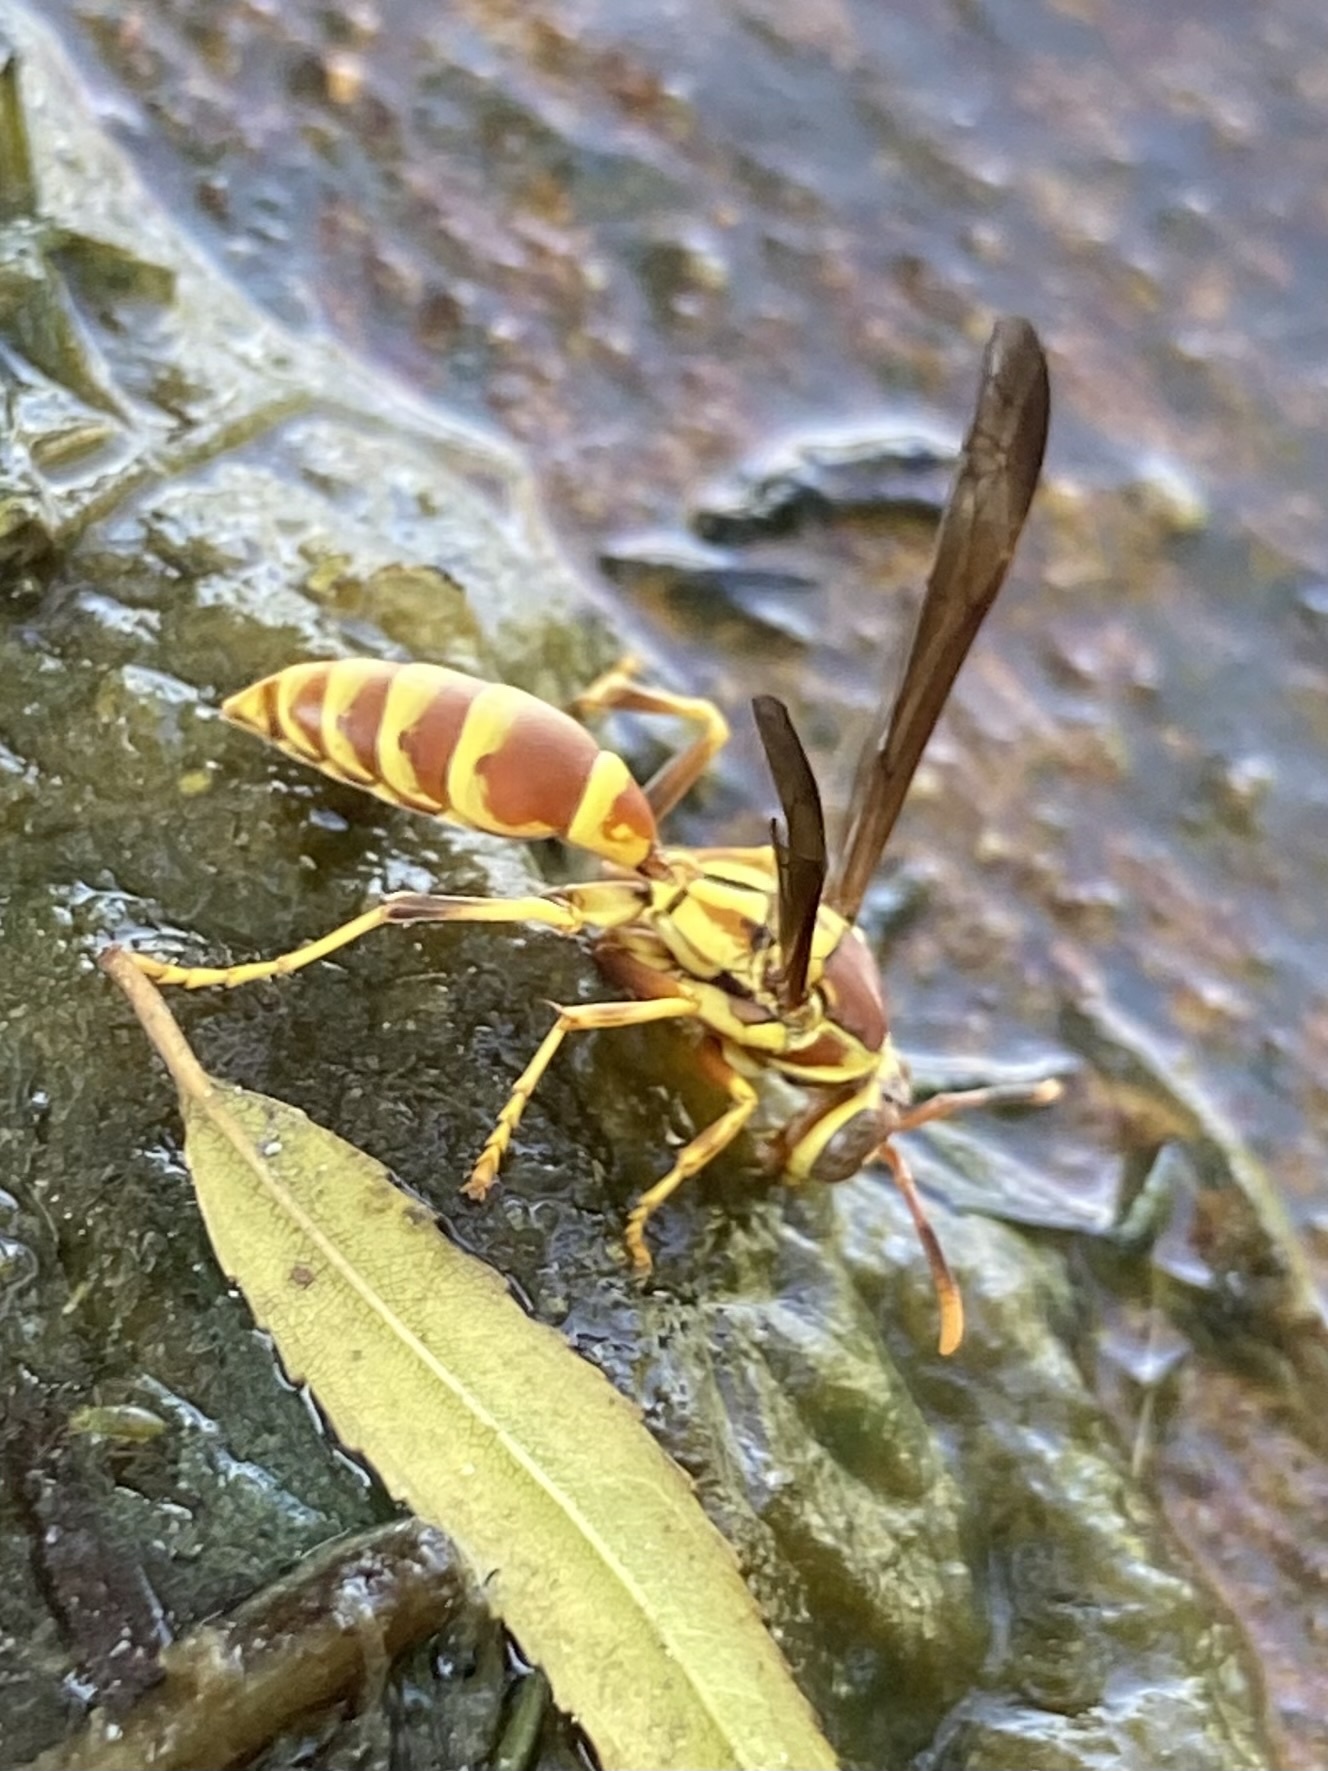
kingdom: Animalia
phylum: Arthropoda
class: Insecta
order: Hymenoptera
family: Eumenidae
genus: Polistes
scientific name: Polistes exclamans
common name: Paper wasp
